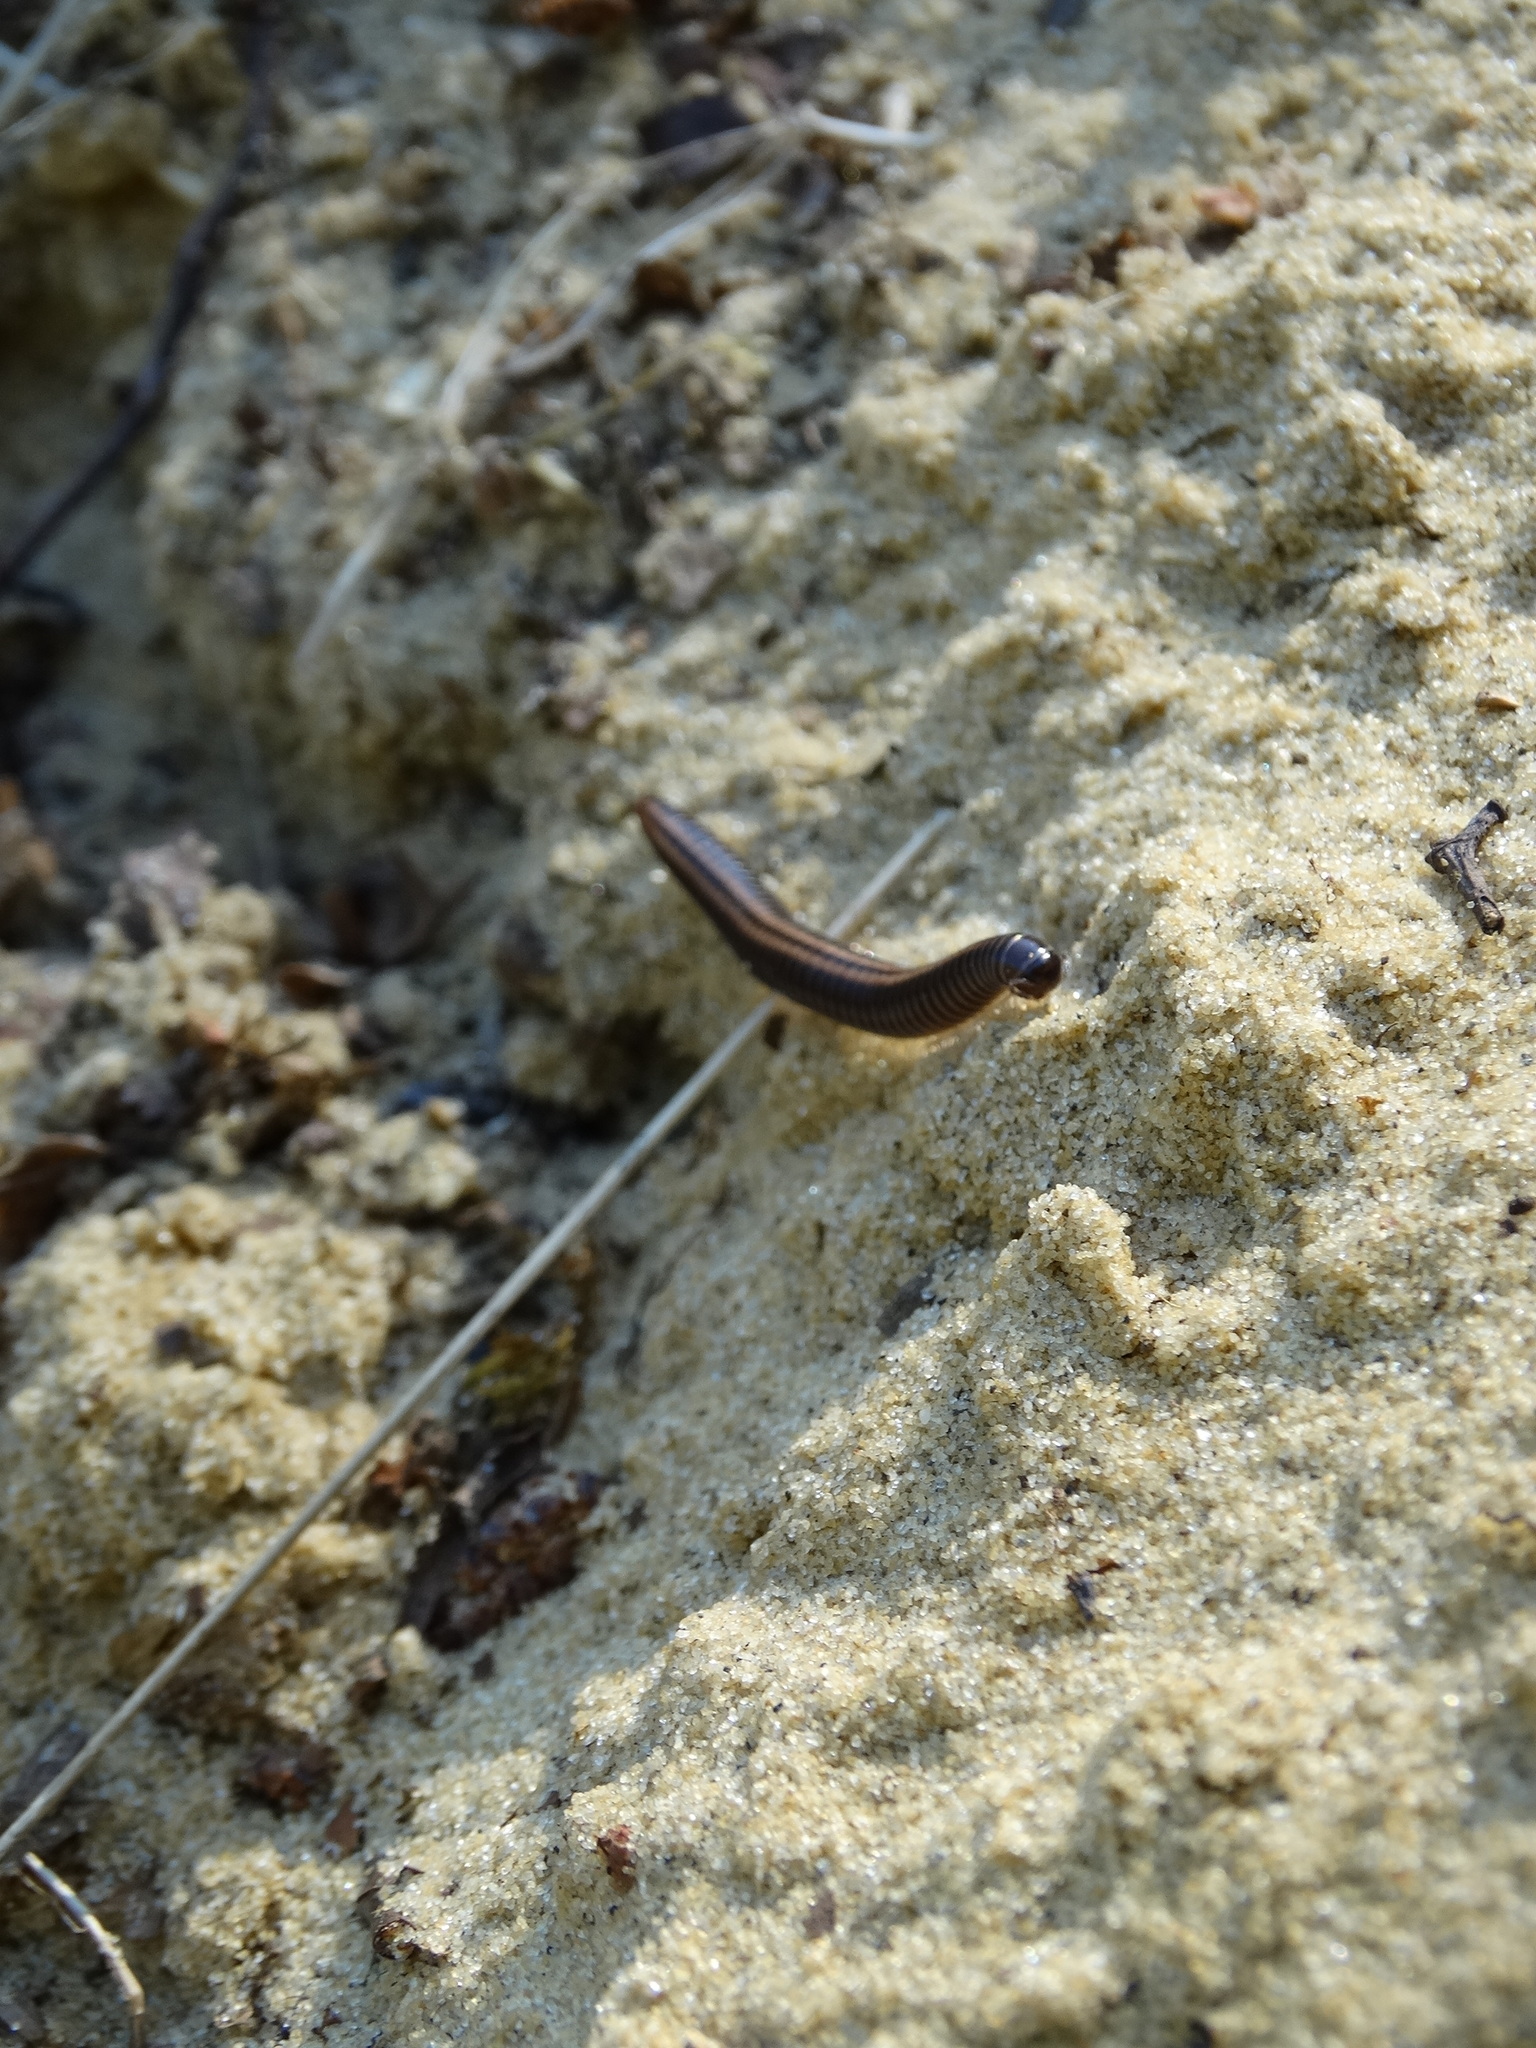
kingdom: Animalia
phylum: Arthropoda
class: Diplopoda
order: Julida
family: Julidae
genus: Ommatoiulus
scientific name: Ommatoiulus sabulosus
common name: Striped millipede
